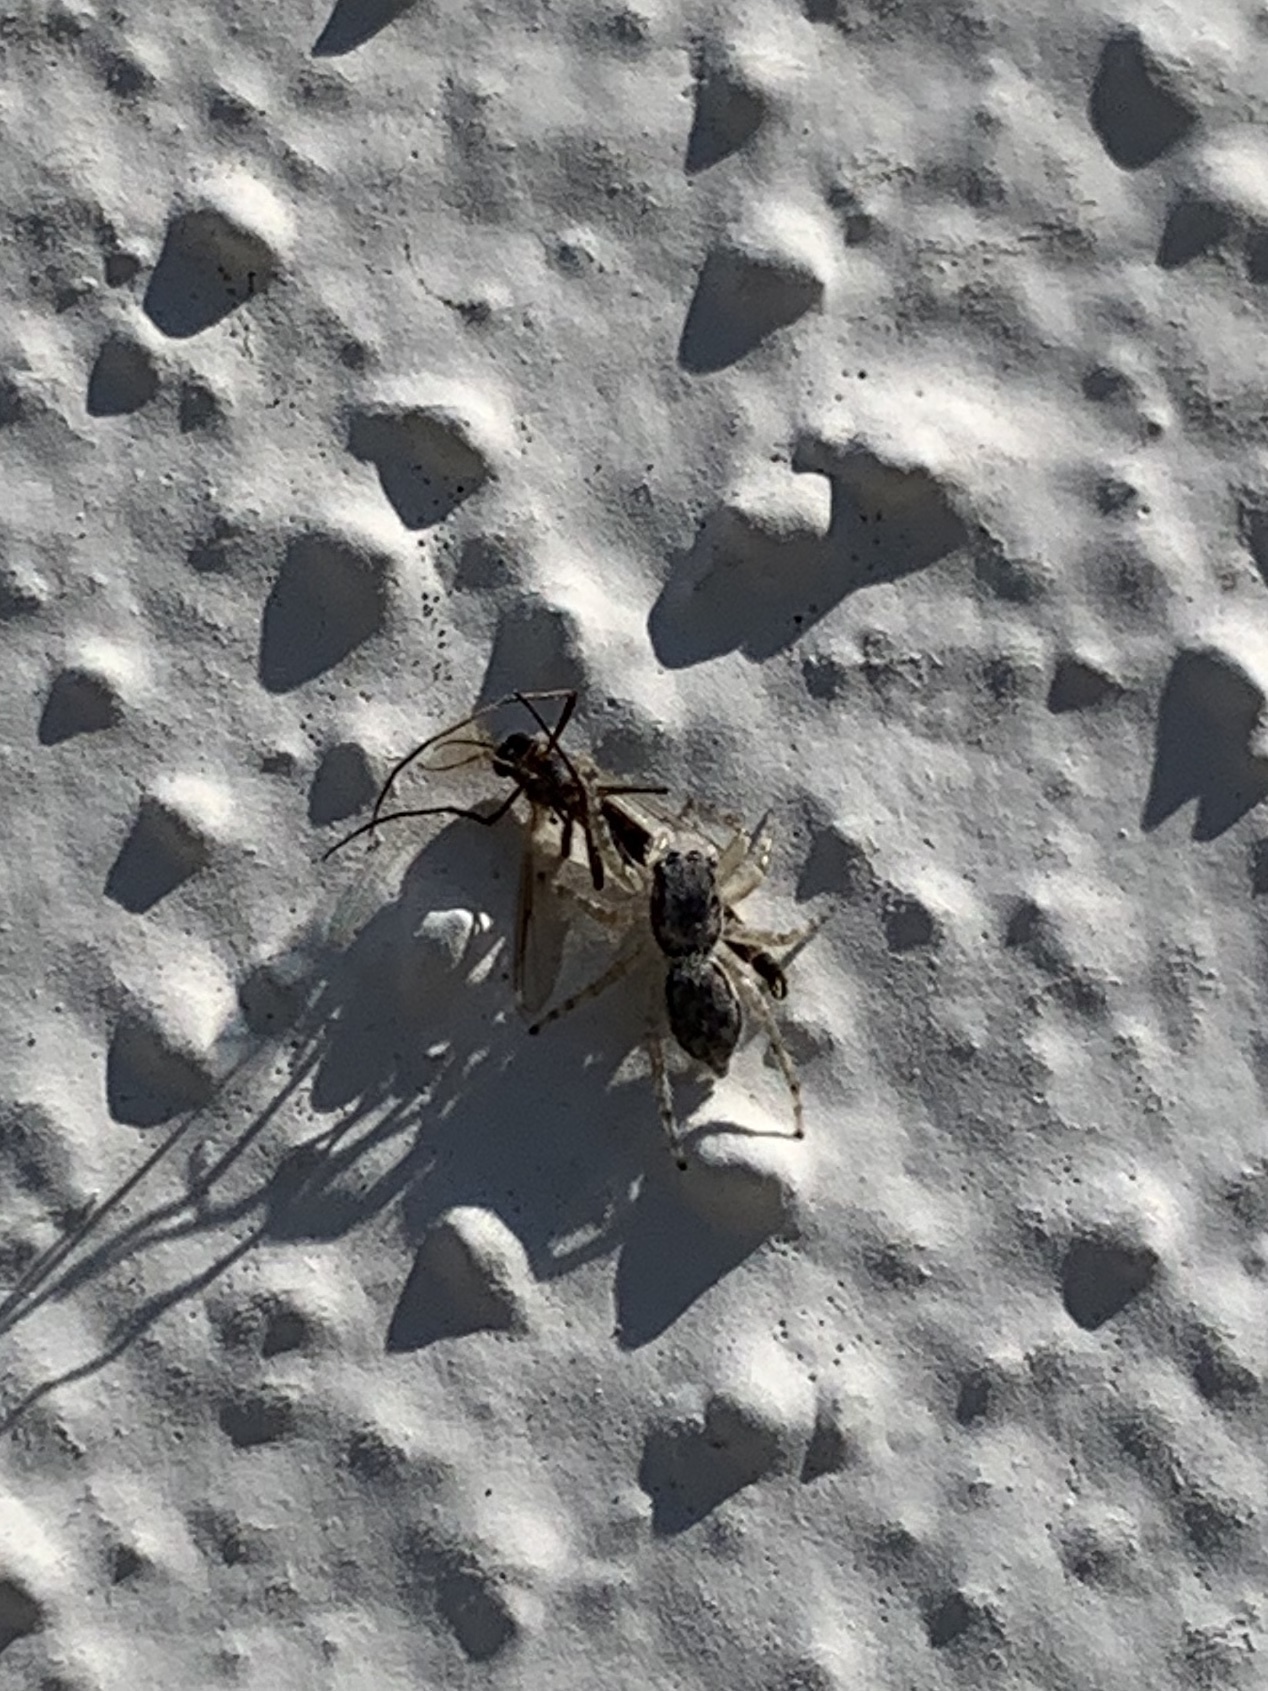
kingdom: Animalia
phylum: Arthropoda
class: Arachnida
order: Araneae
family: Salticidae
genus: Menemerus
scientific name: Menemerus bivittatus
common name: Gray wall jumper
